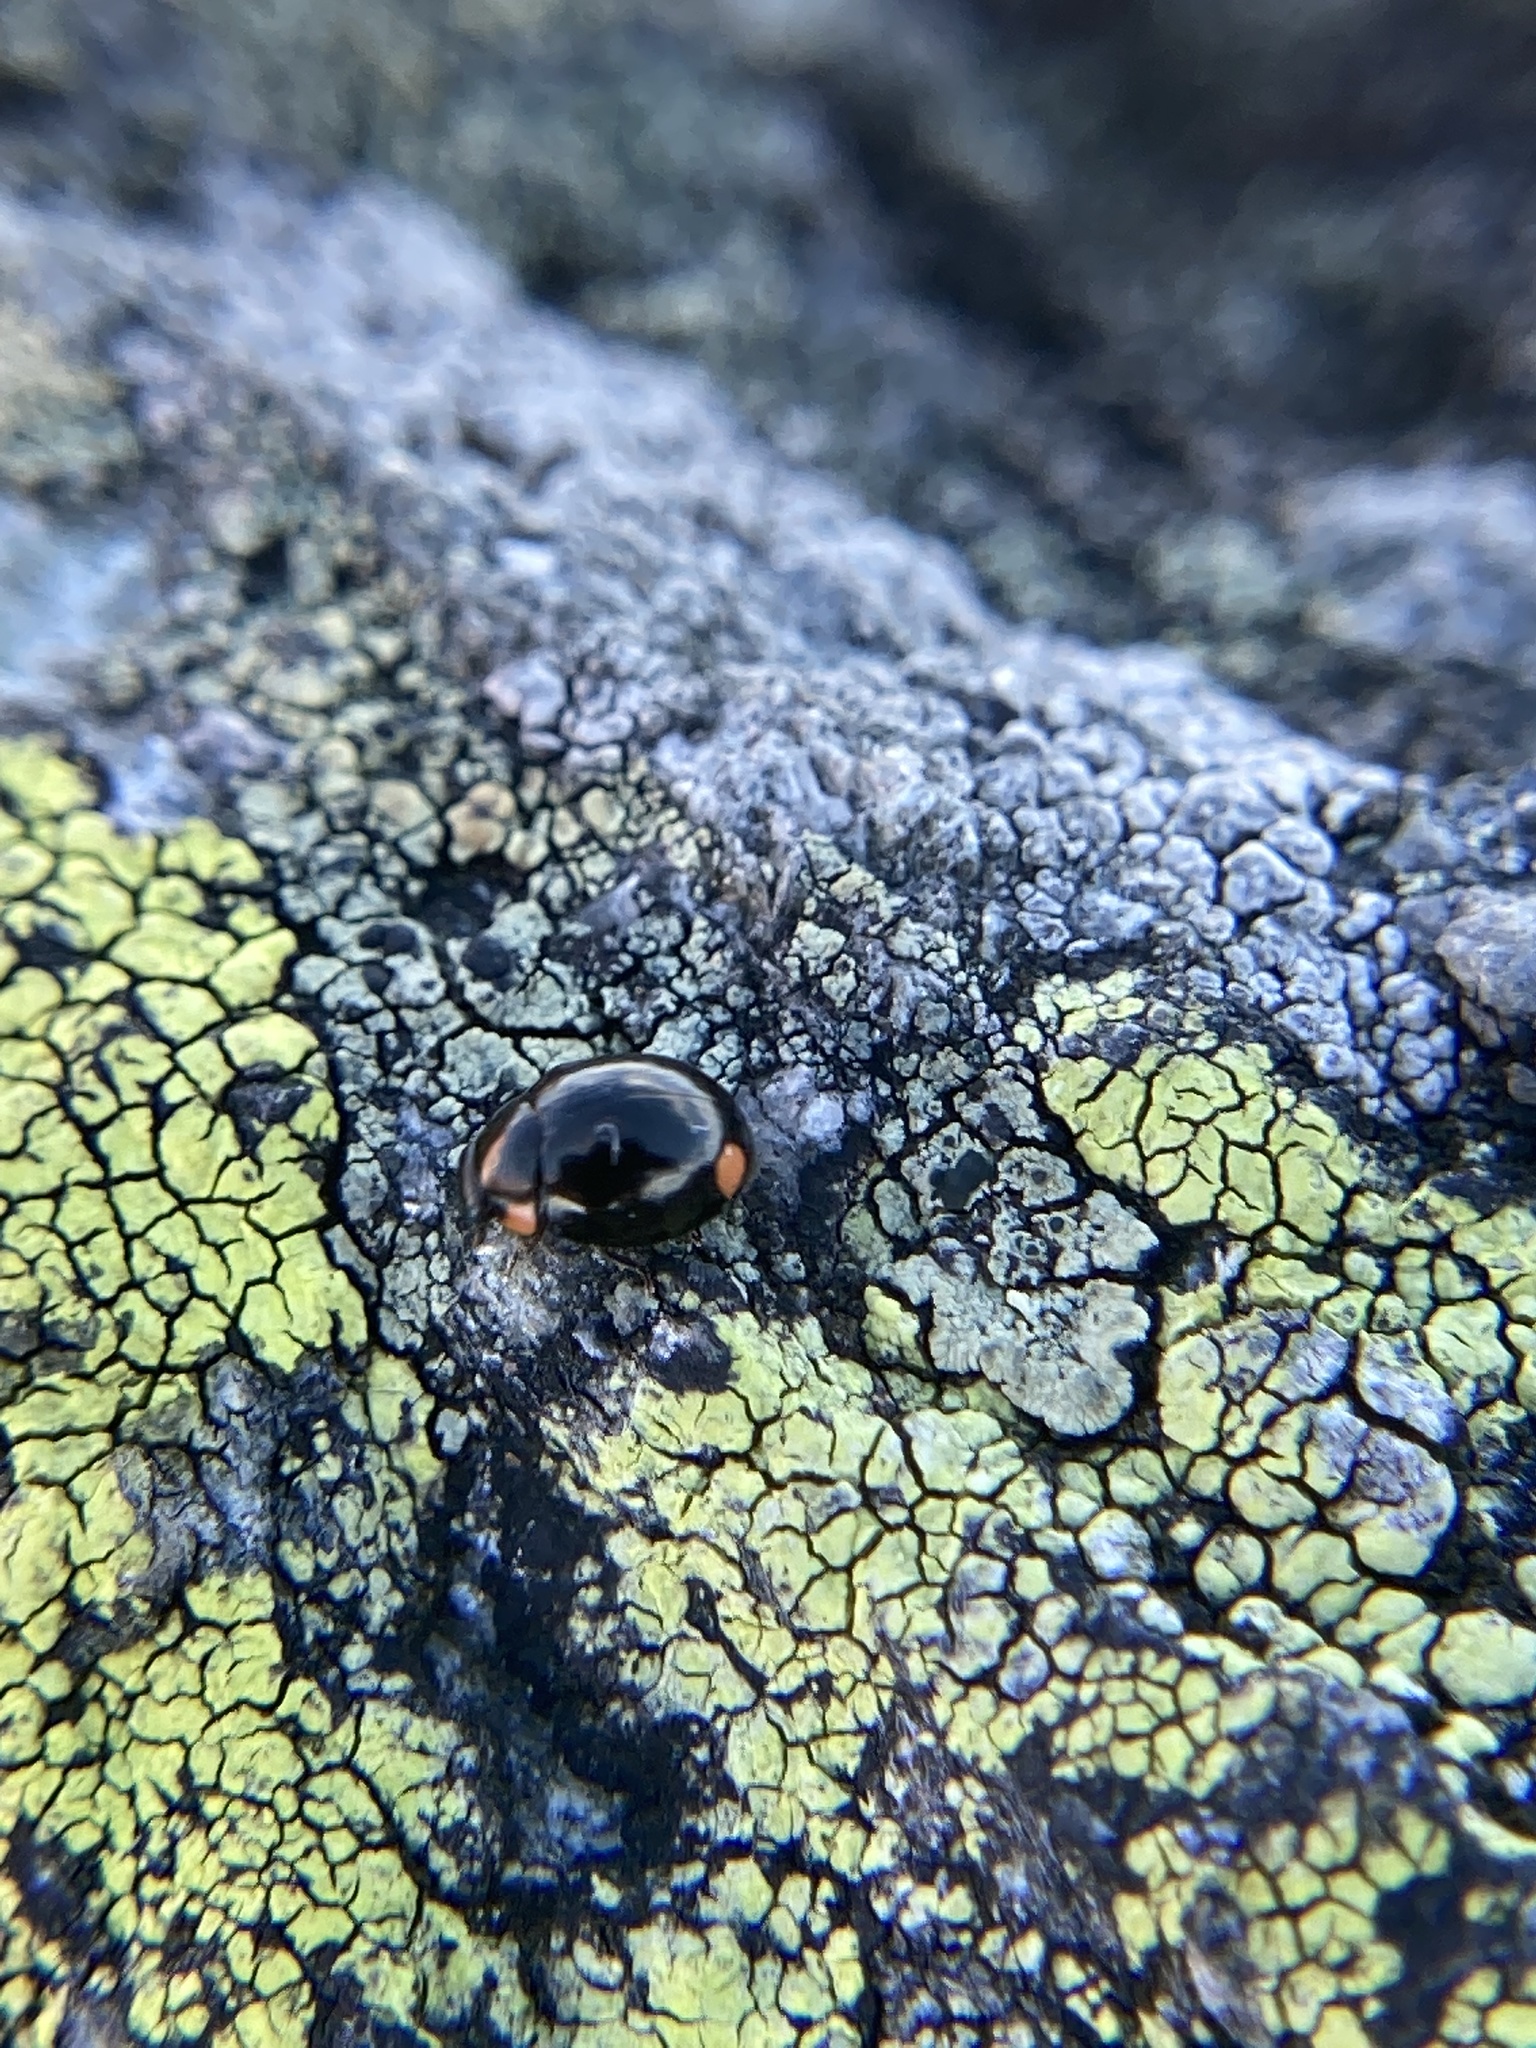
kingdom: Animalia
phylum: Arthropoda
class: Insecta
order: Coleoptera
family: Coccinellidae
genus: Hyperaspis
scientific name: Hyperaspis bigeminata
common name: Bigeminate sigil lady beetle
